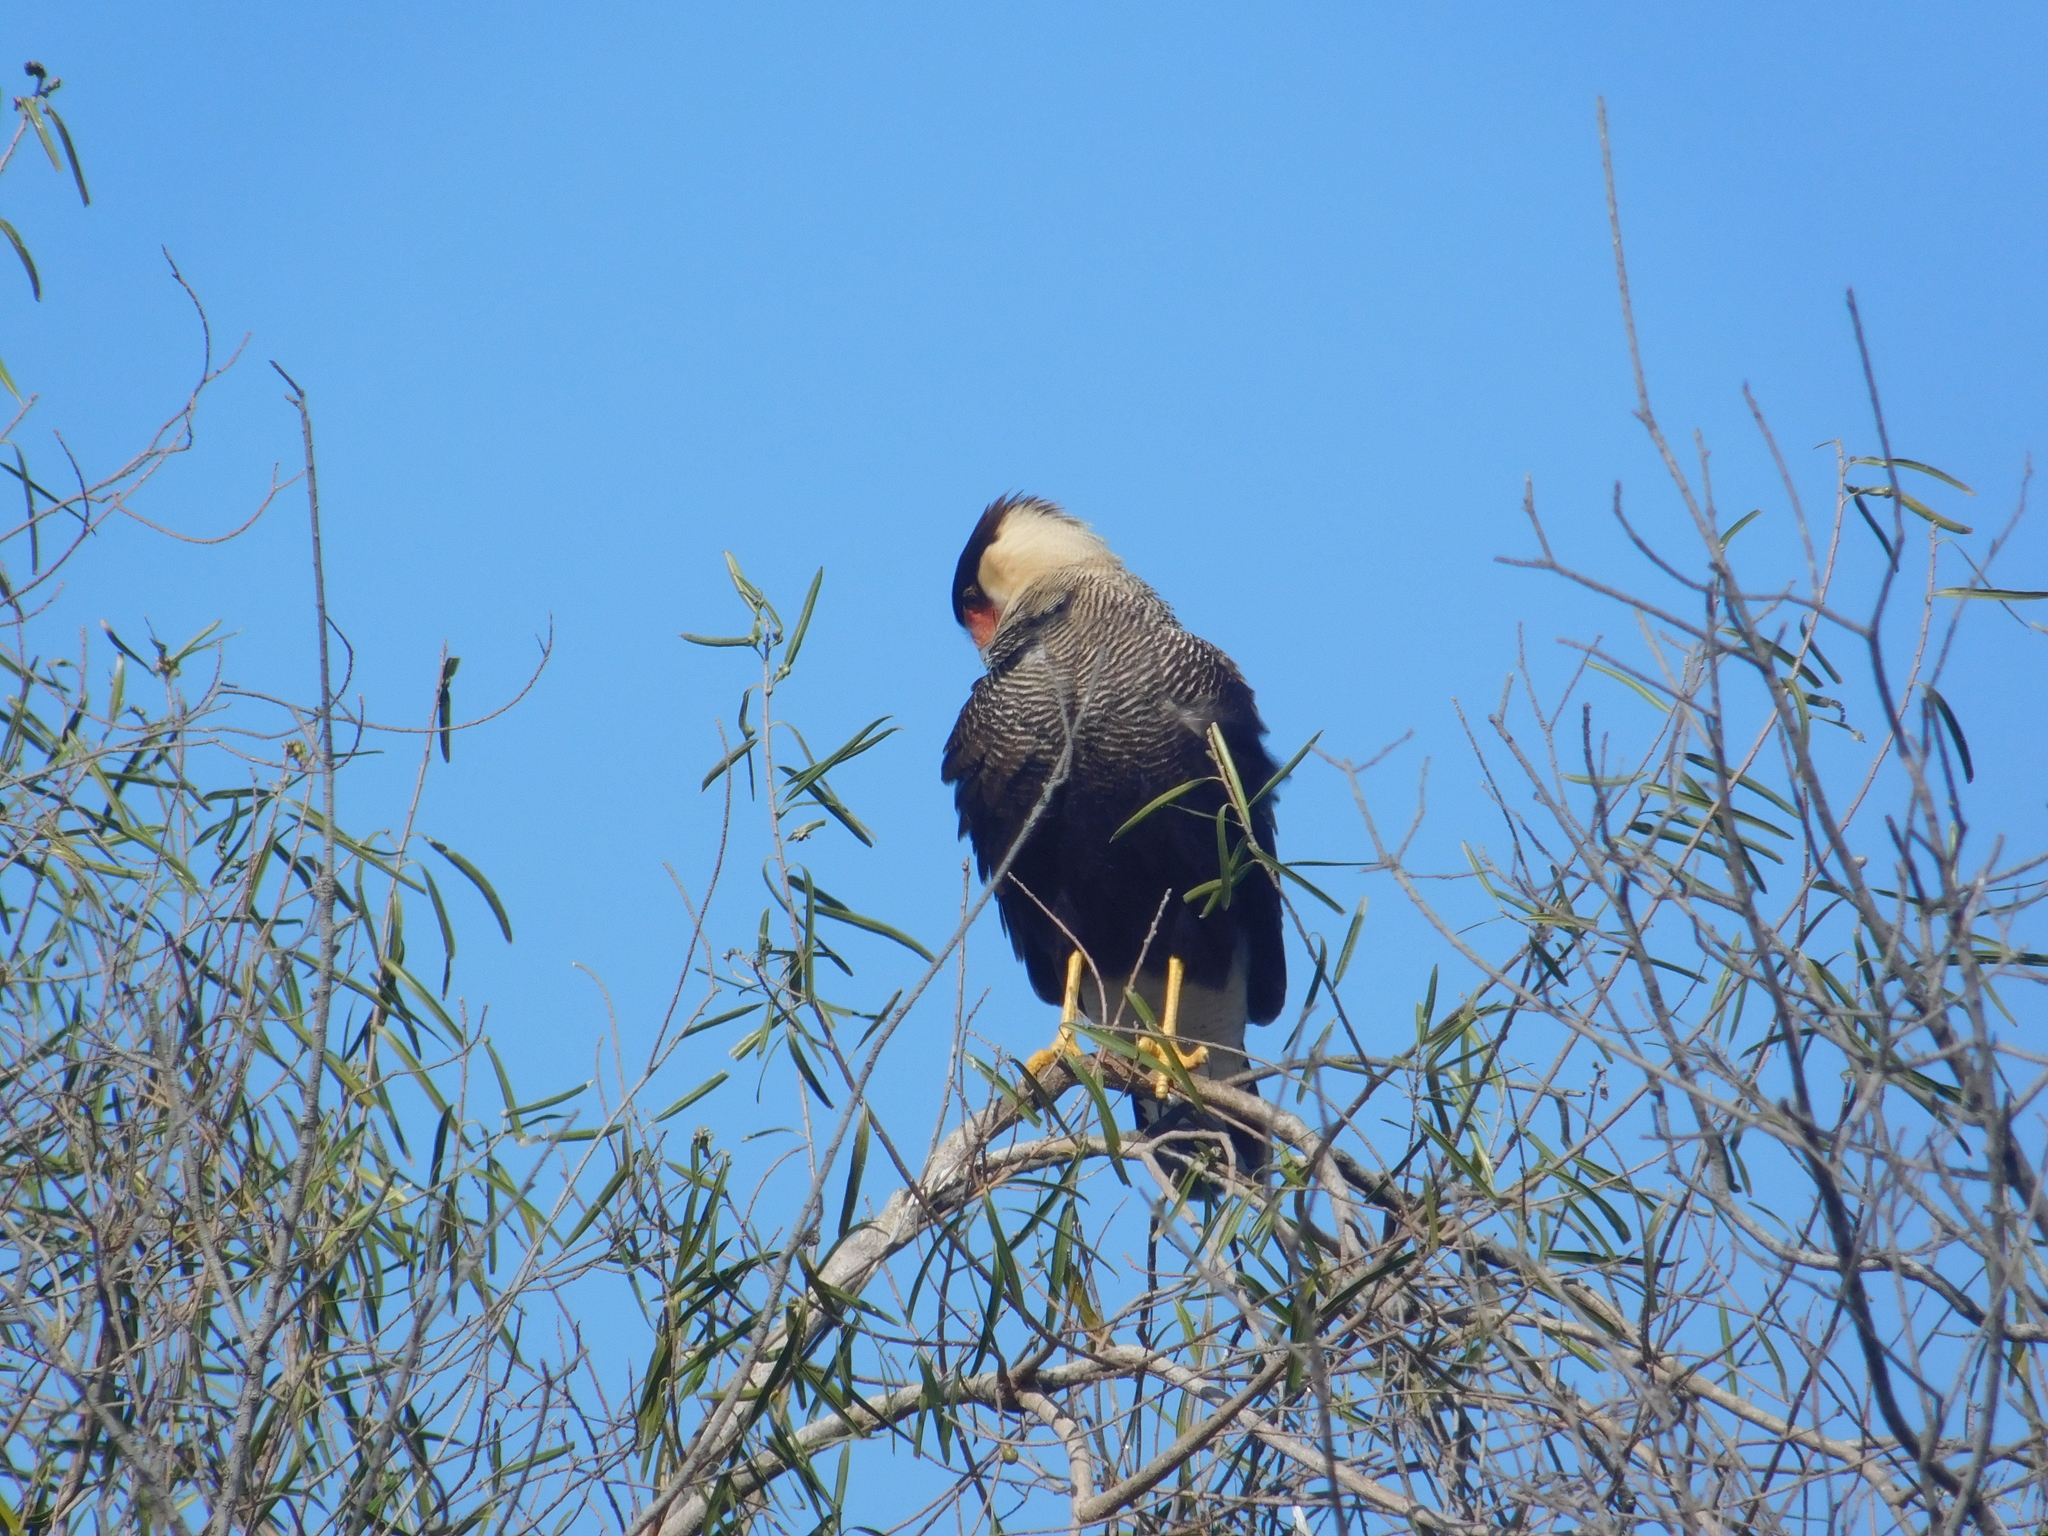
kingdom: Animalia
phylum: Chordata
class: Aves
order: Falconiformes
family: Falconidae
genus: Caracara
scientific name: Caracara plancus
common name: Southern caracara
